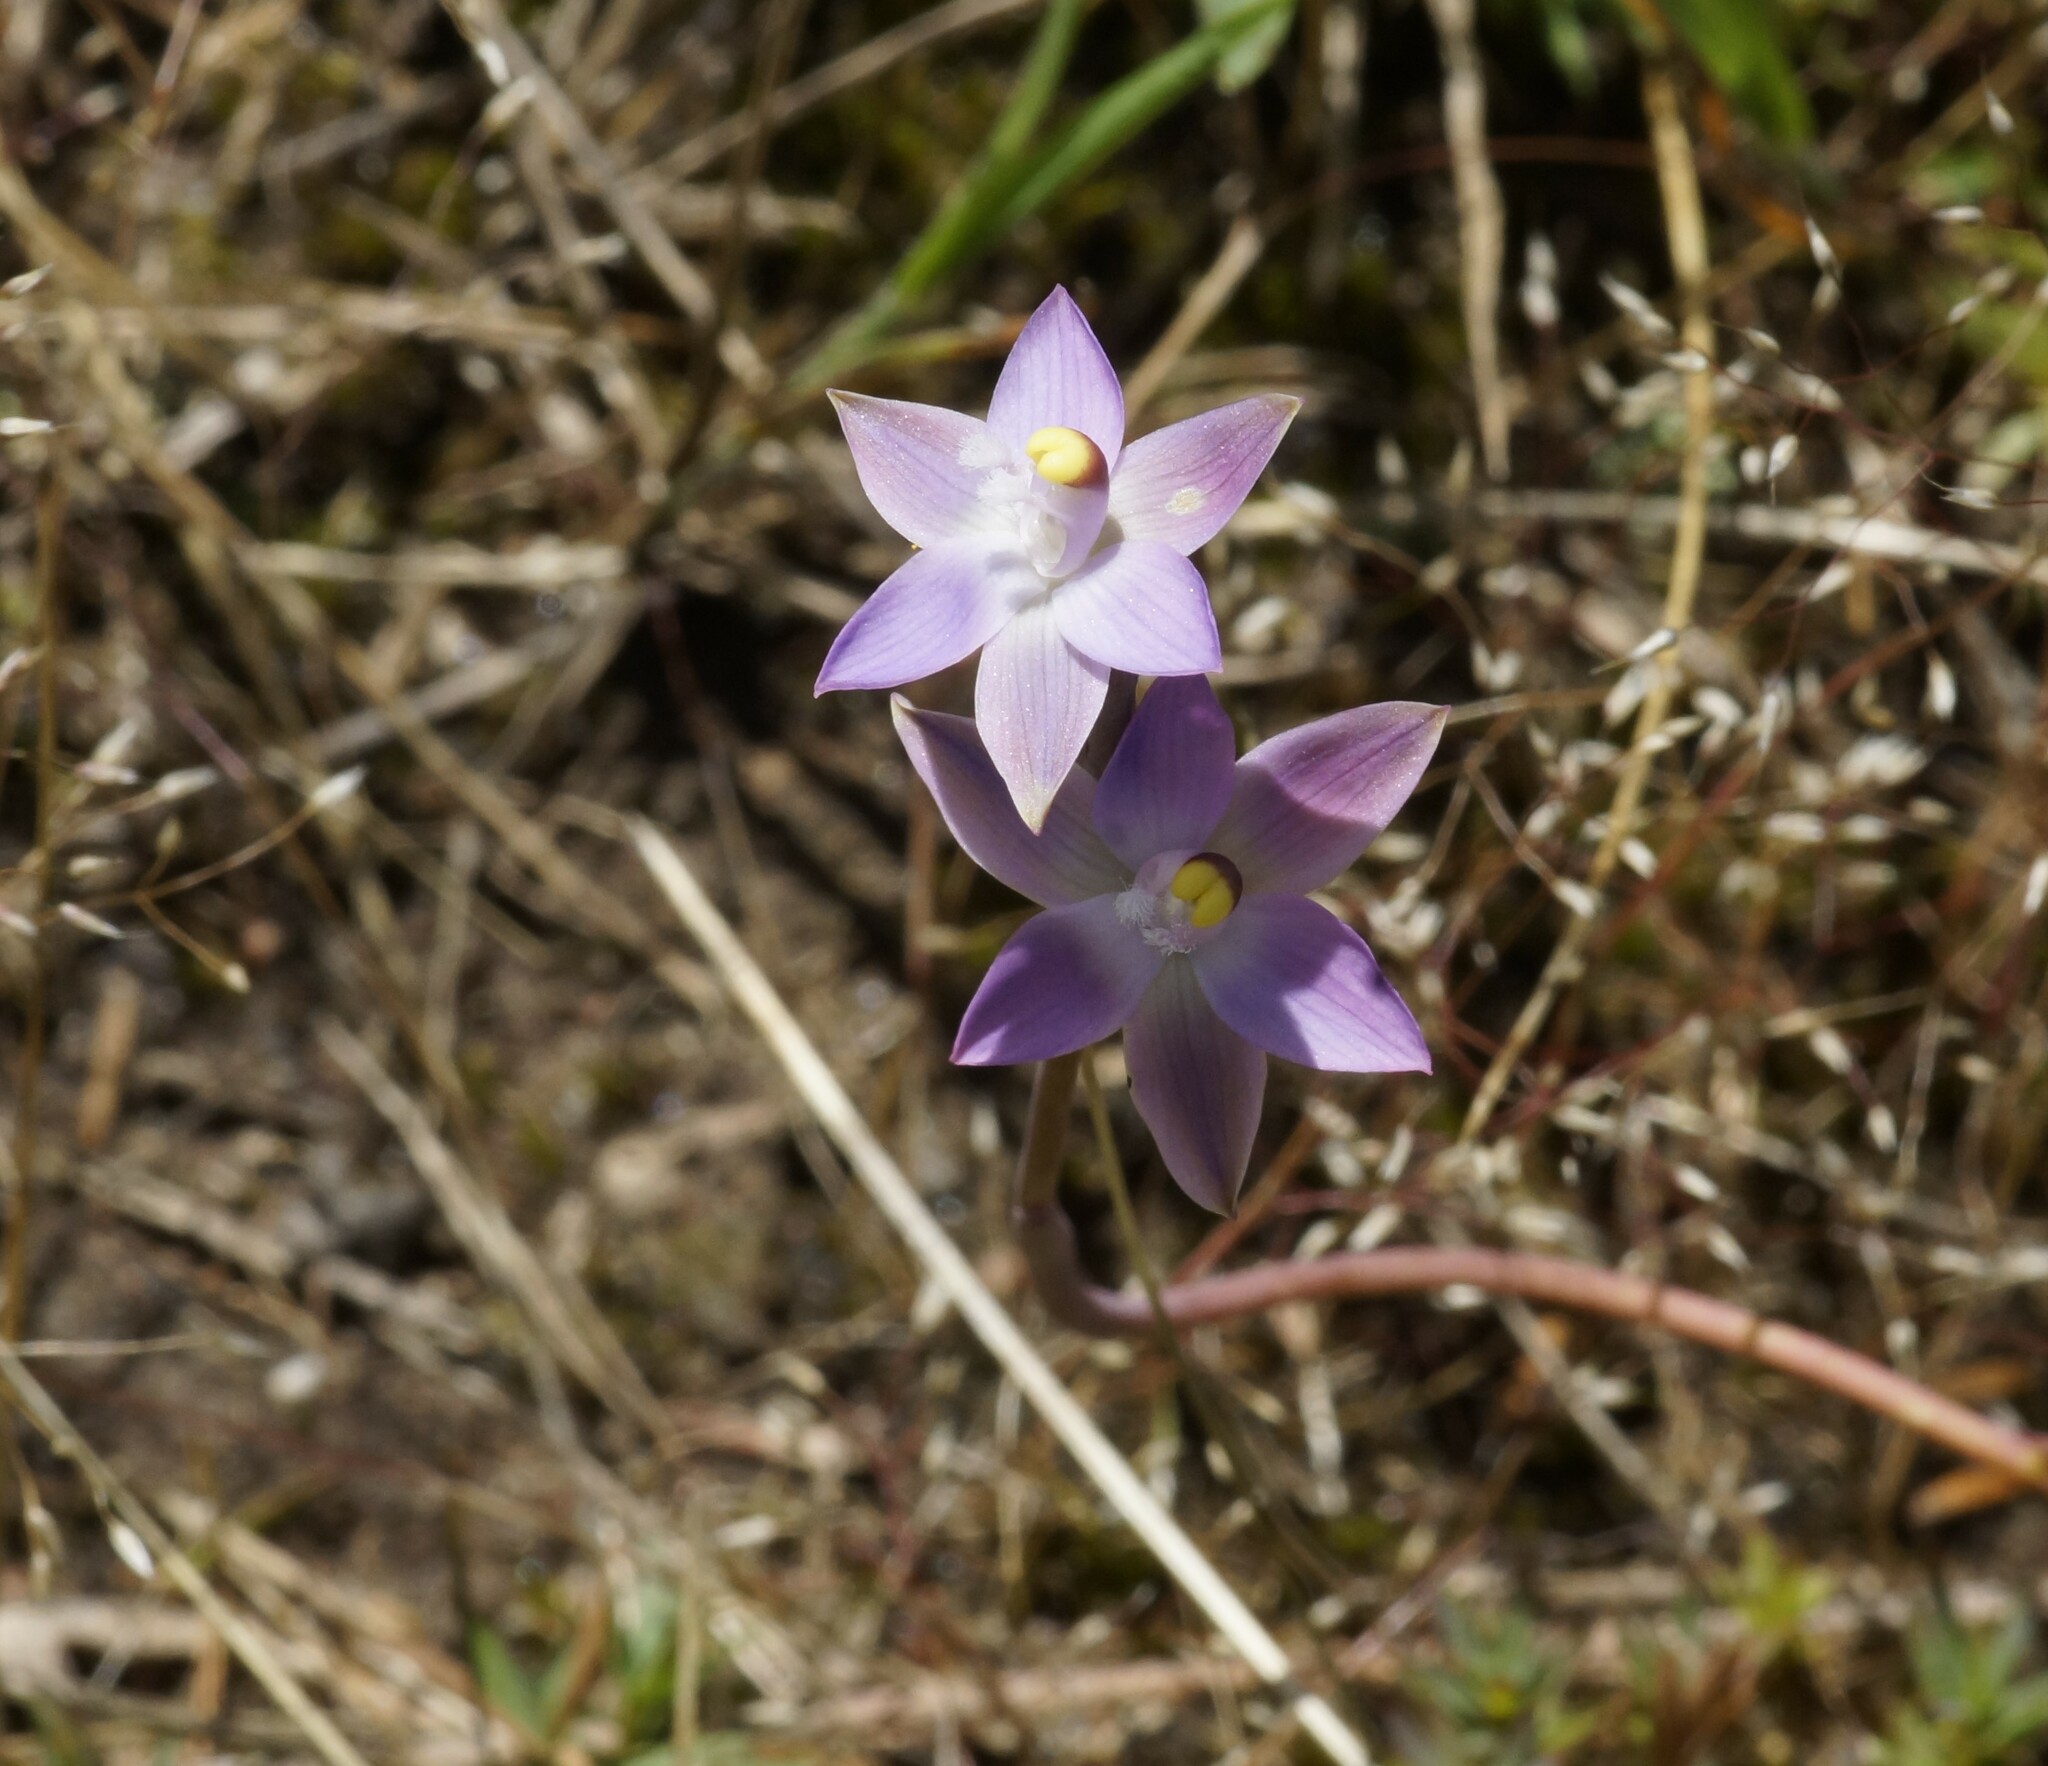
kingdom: Plantae
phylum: Tracheophyta
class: Liliopsida
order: Asparagales
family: Orchidaceae
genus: Thelymitra
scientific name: Thelymitra peniculata
